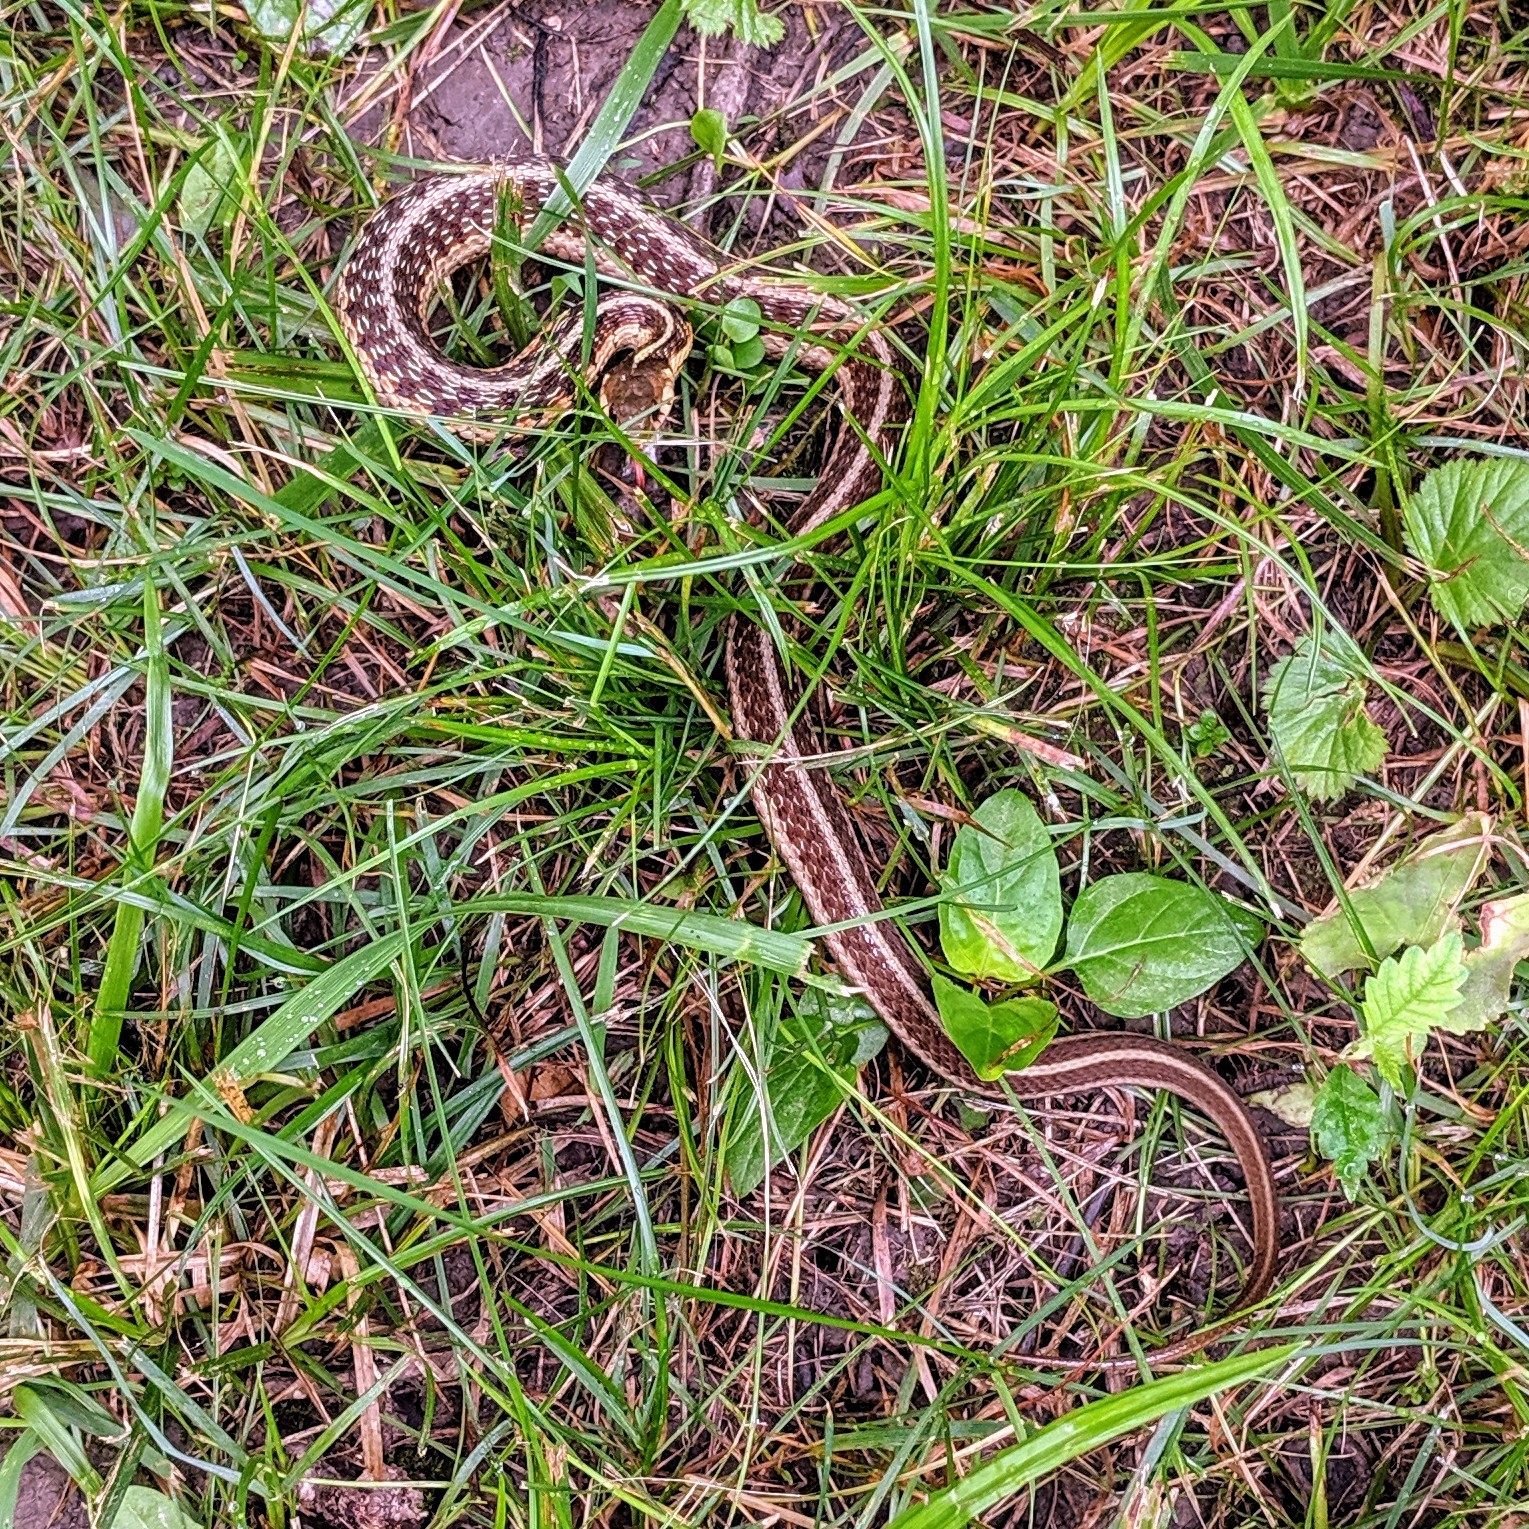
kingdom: Animalia
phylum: Chordata
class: Squamata
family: Colubridae
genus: Thamnophis
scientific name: Thamnophis sirtalis
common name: Common garter snake
